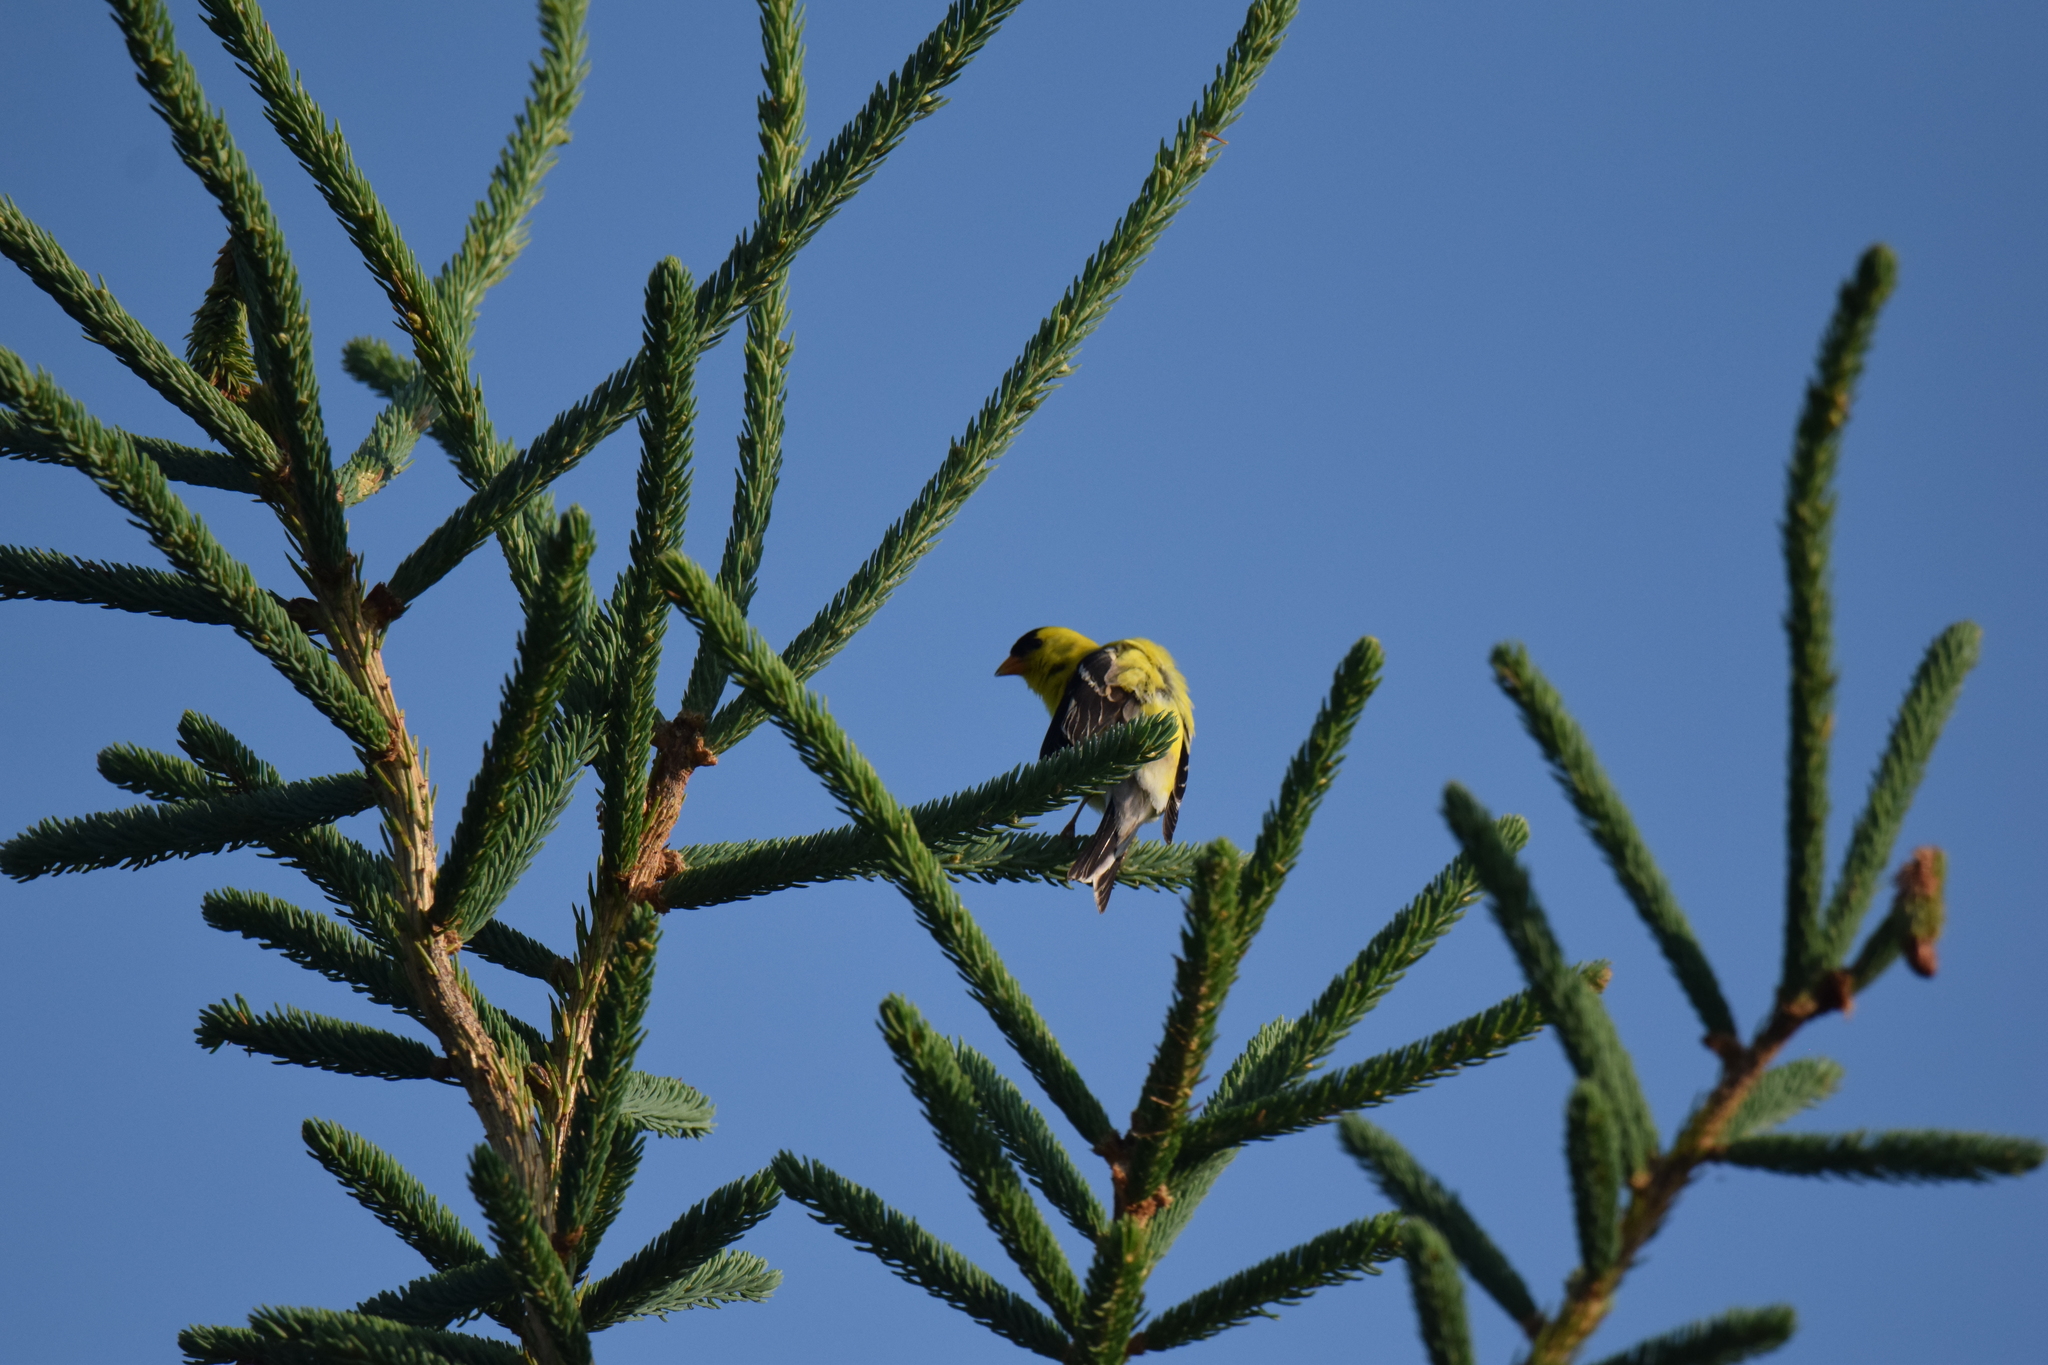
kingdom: Animalia
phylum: Chordata
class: Aves
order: Passeriformes
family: Fringillidae
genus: Spinus
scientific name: Spinus tristis
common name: American goldfinch
